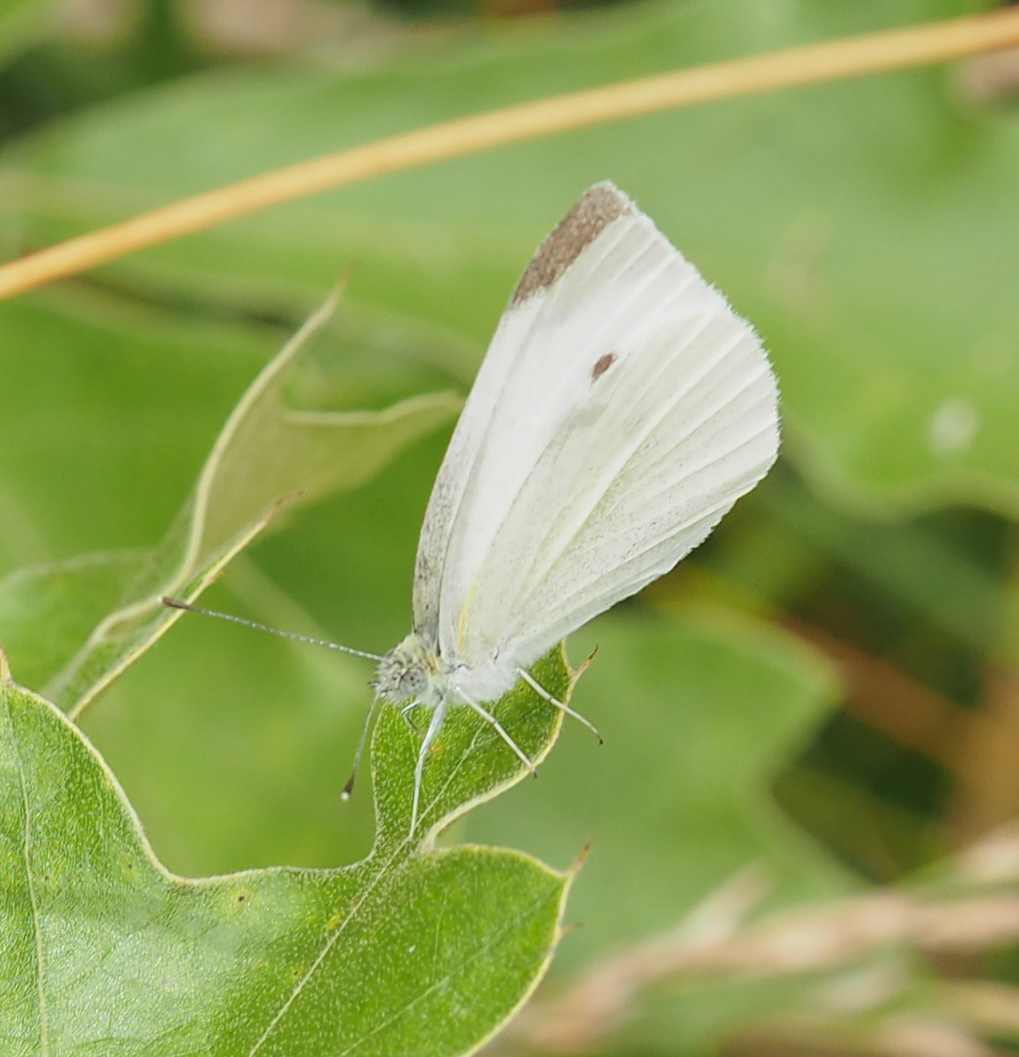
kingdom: Animalia
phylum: Arthropoda
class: Insecta
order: Lepidoptera
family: Pieridae
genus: Pieris
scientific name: Pieris rapae
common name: Small white
